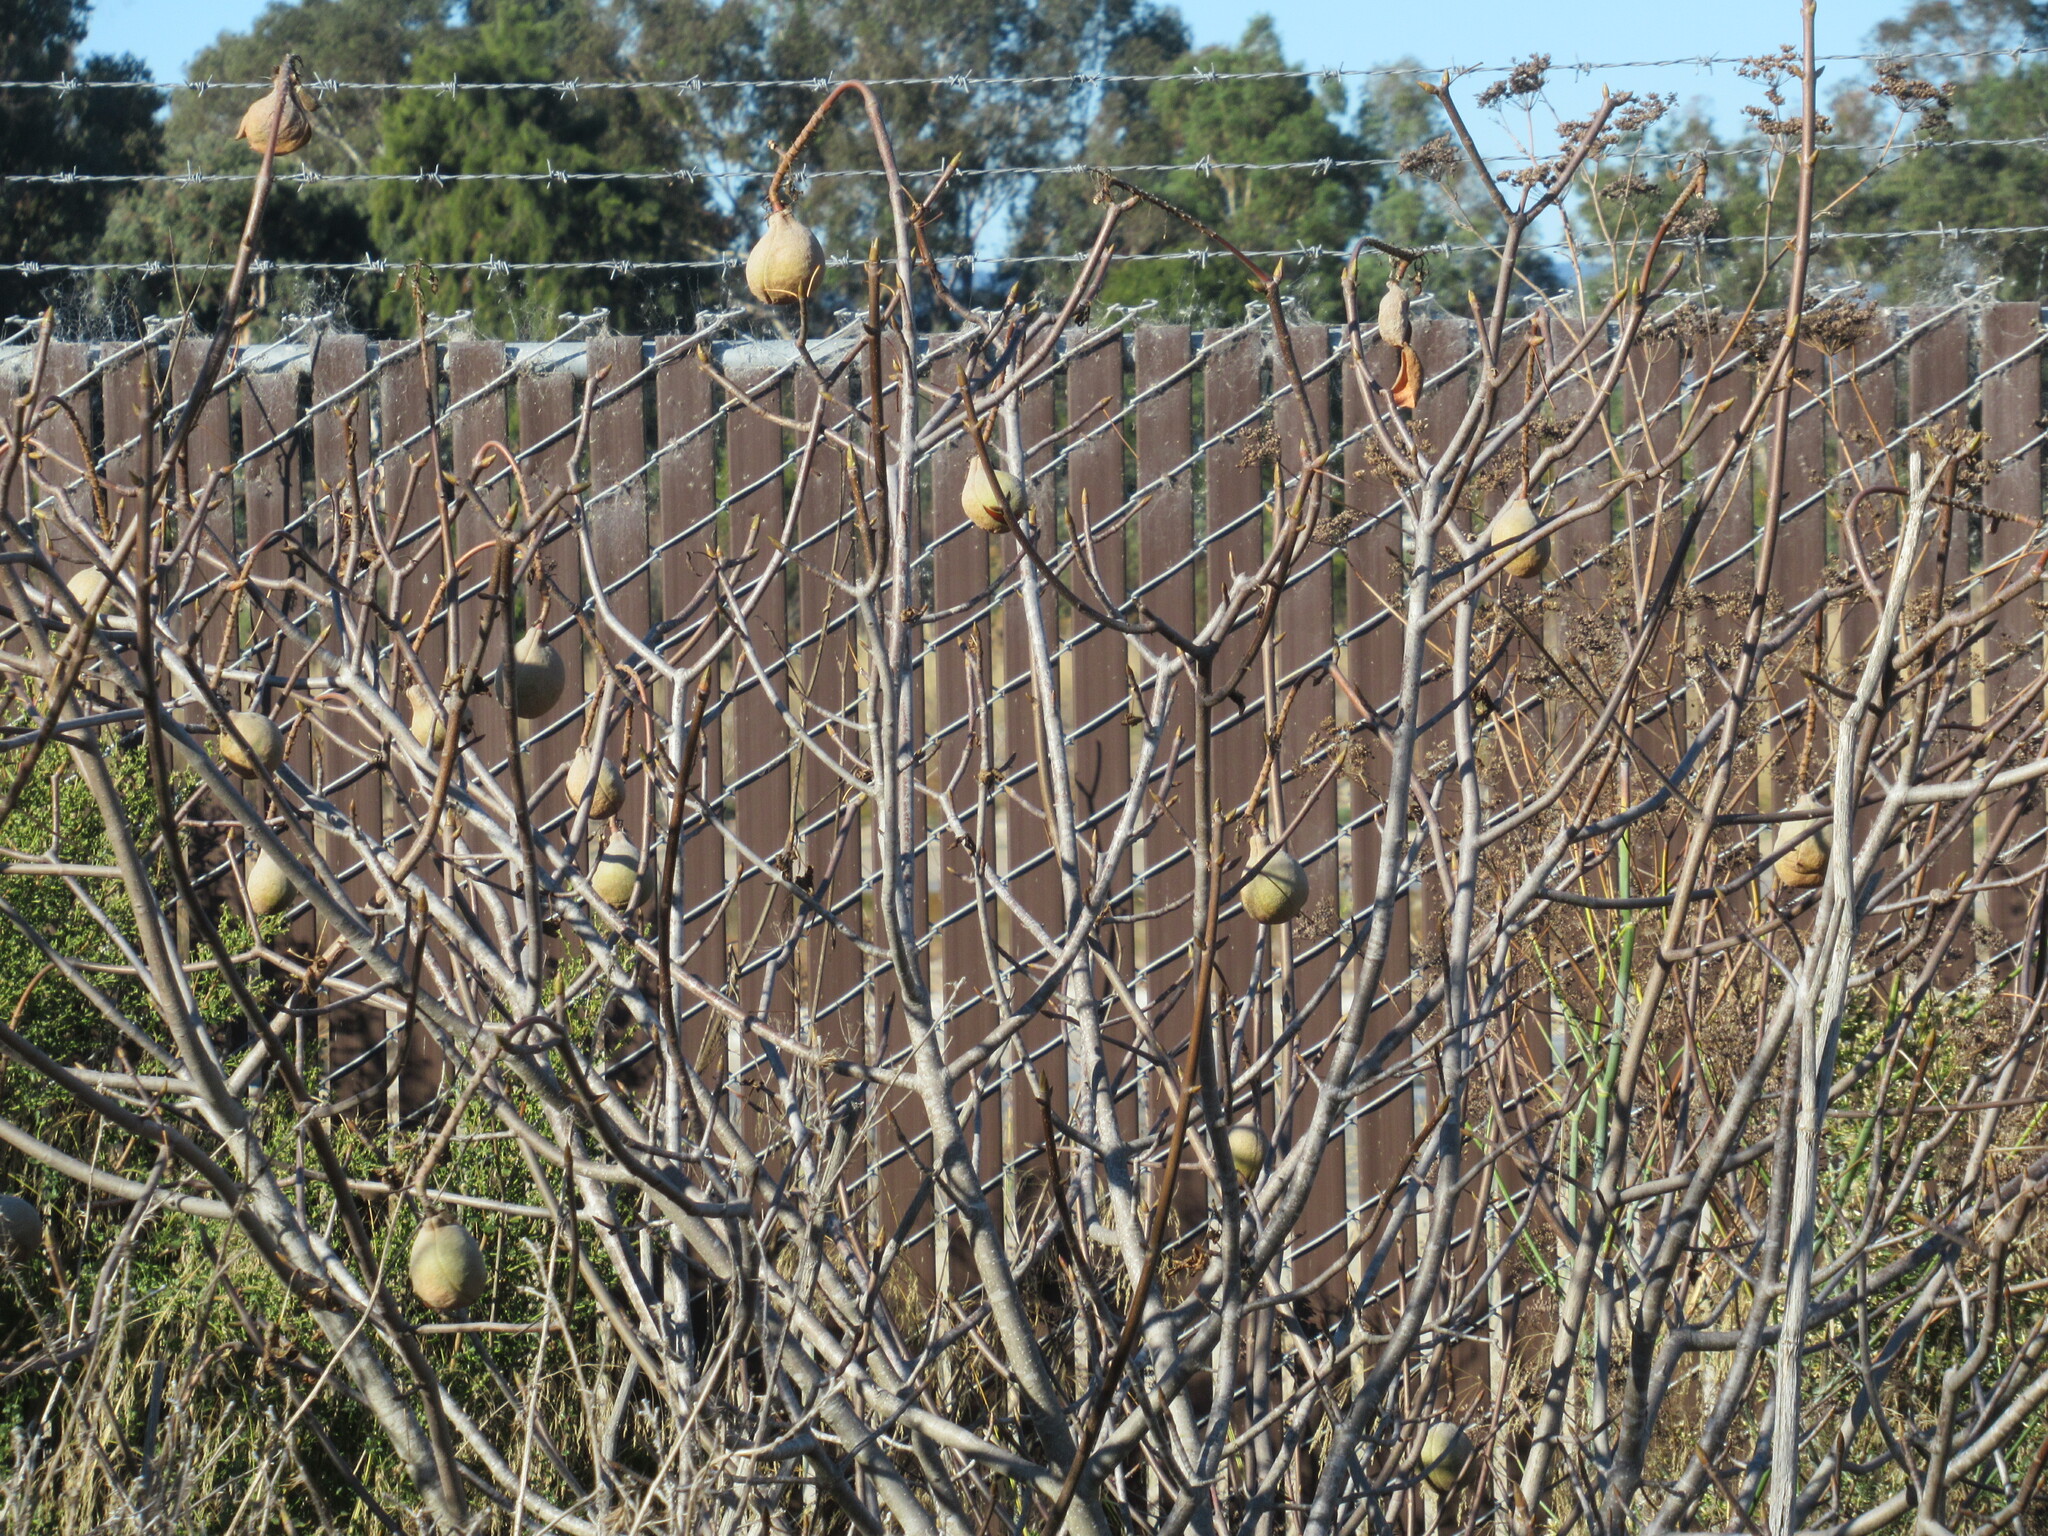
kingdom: Plantae
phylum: Tracheophyta
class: Magnoliopsida
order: Sapindales
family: Sapindaceae
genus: Aesculus
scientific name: Aesculus californica
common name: California buckeye
